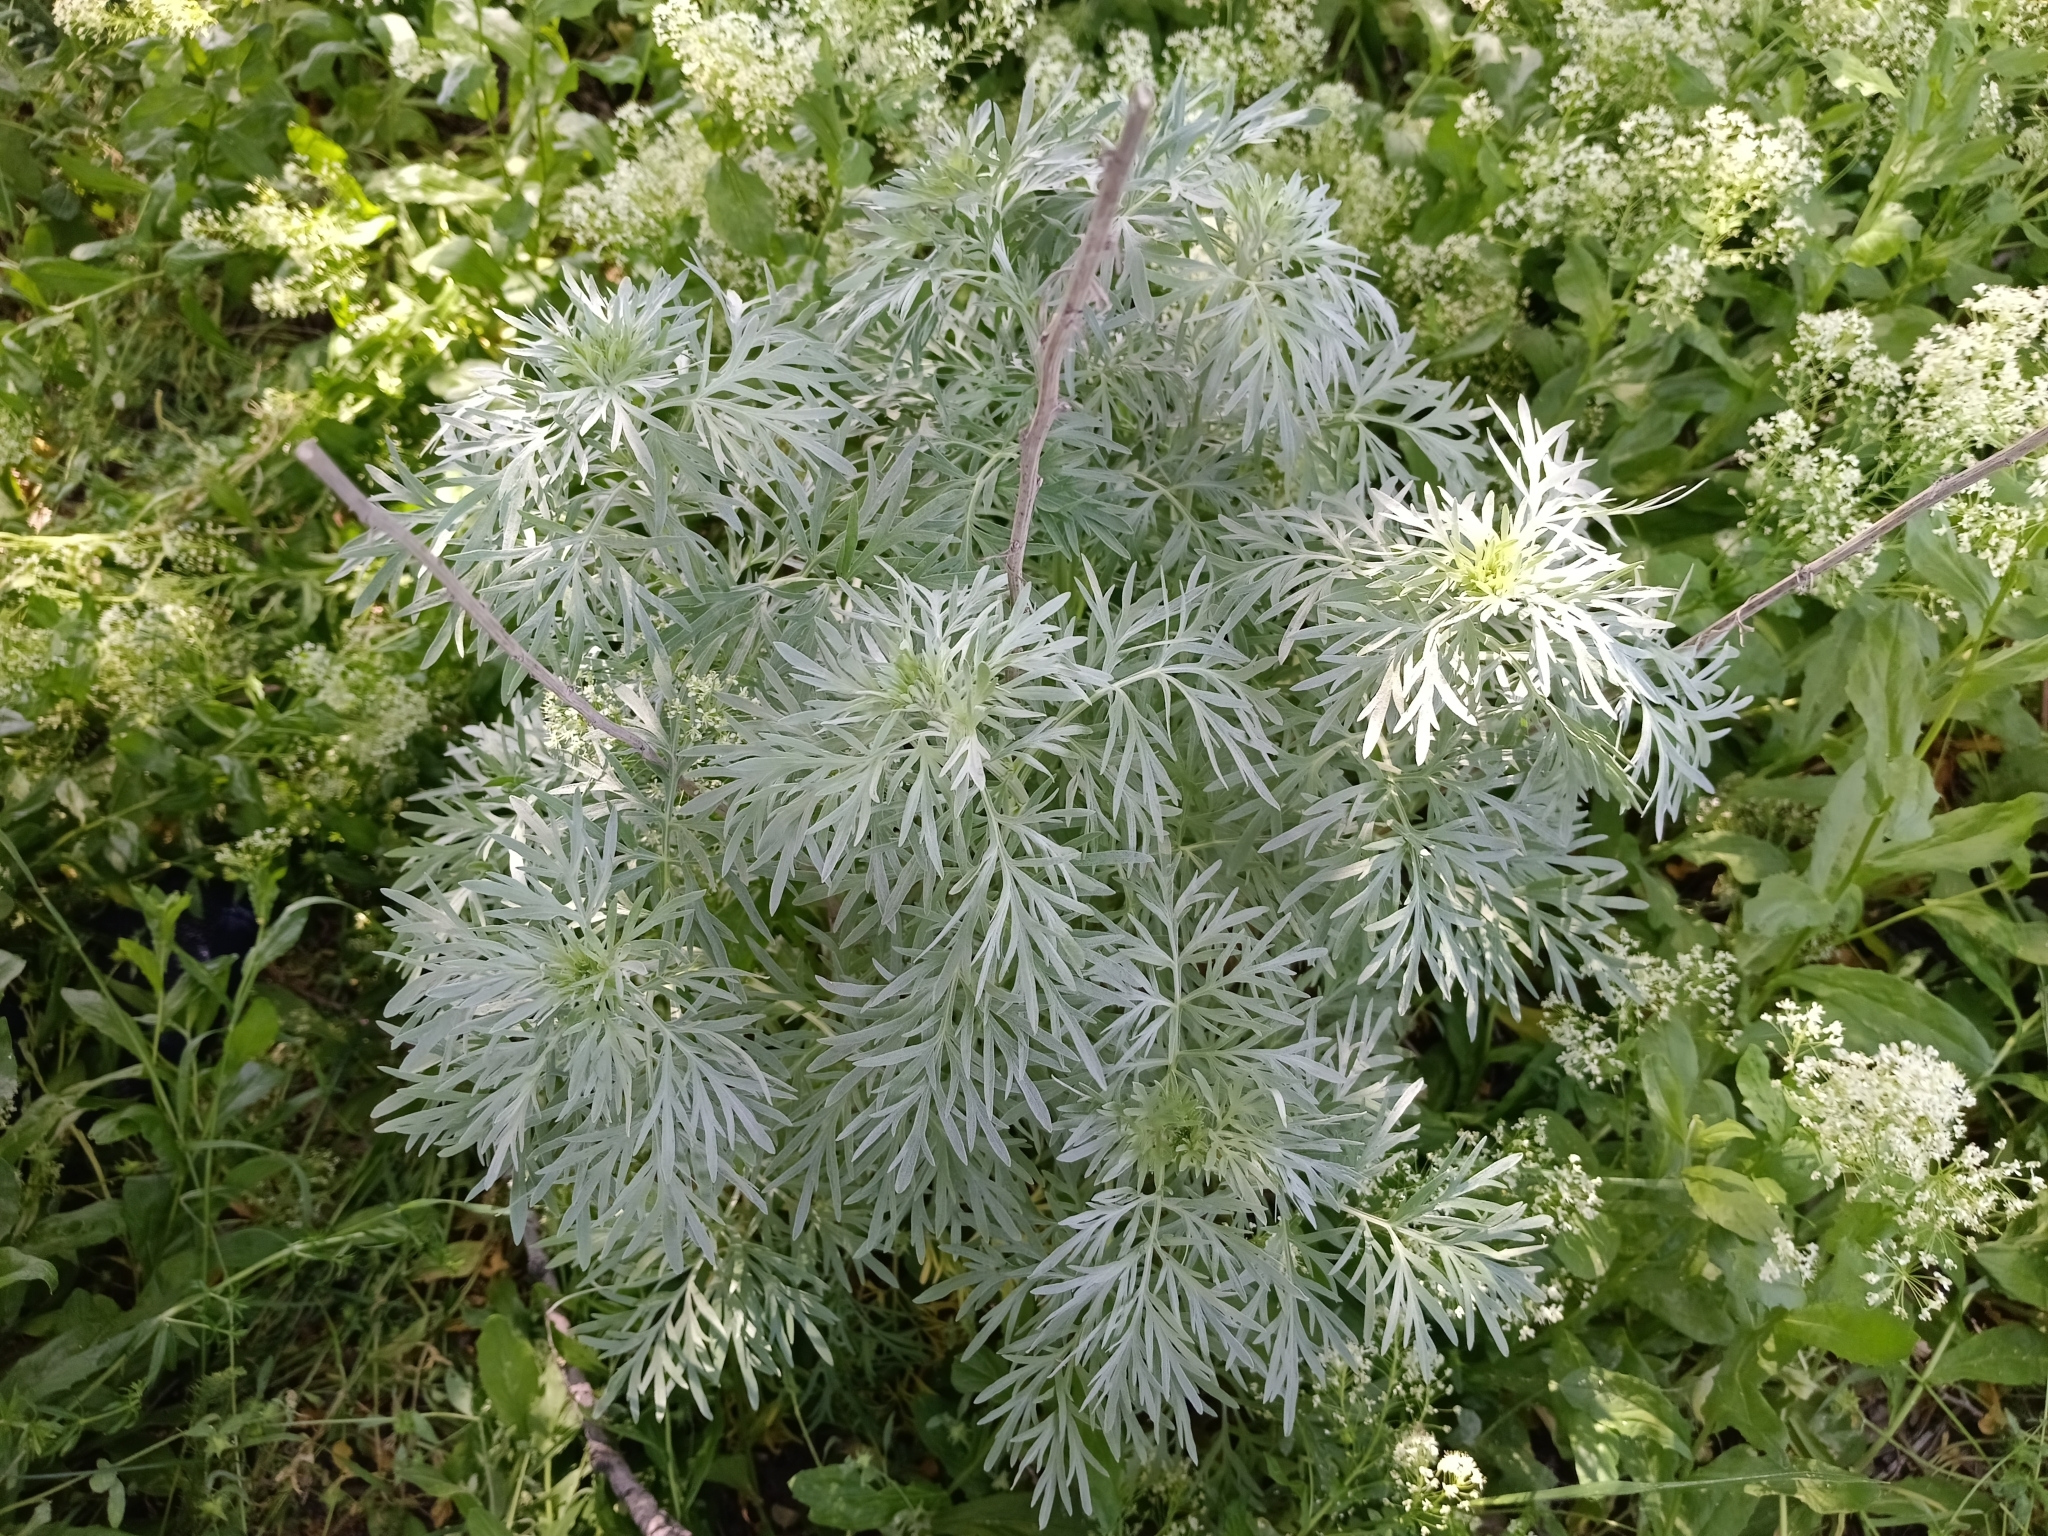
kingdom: Plantae
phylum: Tracheophyta
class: Magnoliopsida
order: Asterales
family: Asteraceae
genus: Artemisia
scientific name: Artemisia absinthium
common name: Wormwood
